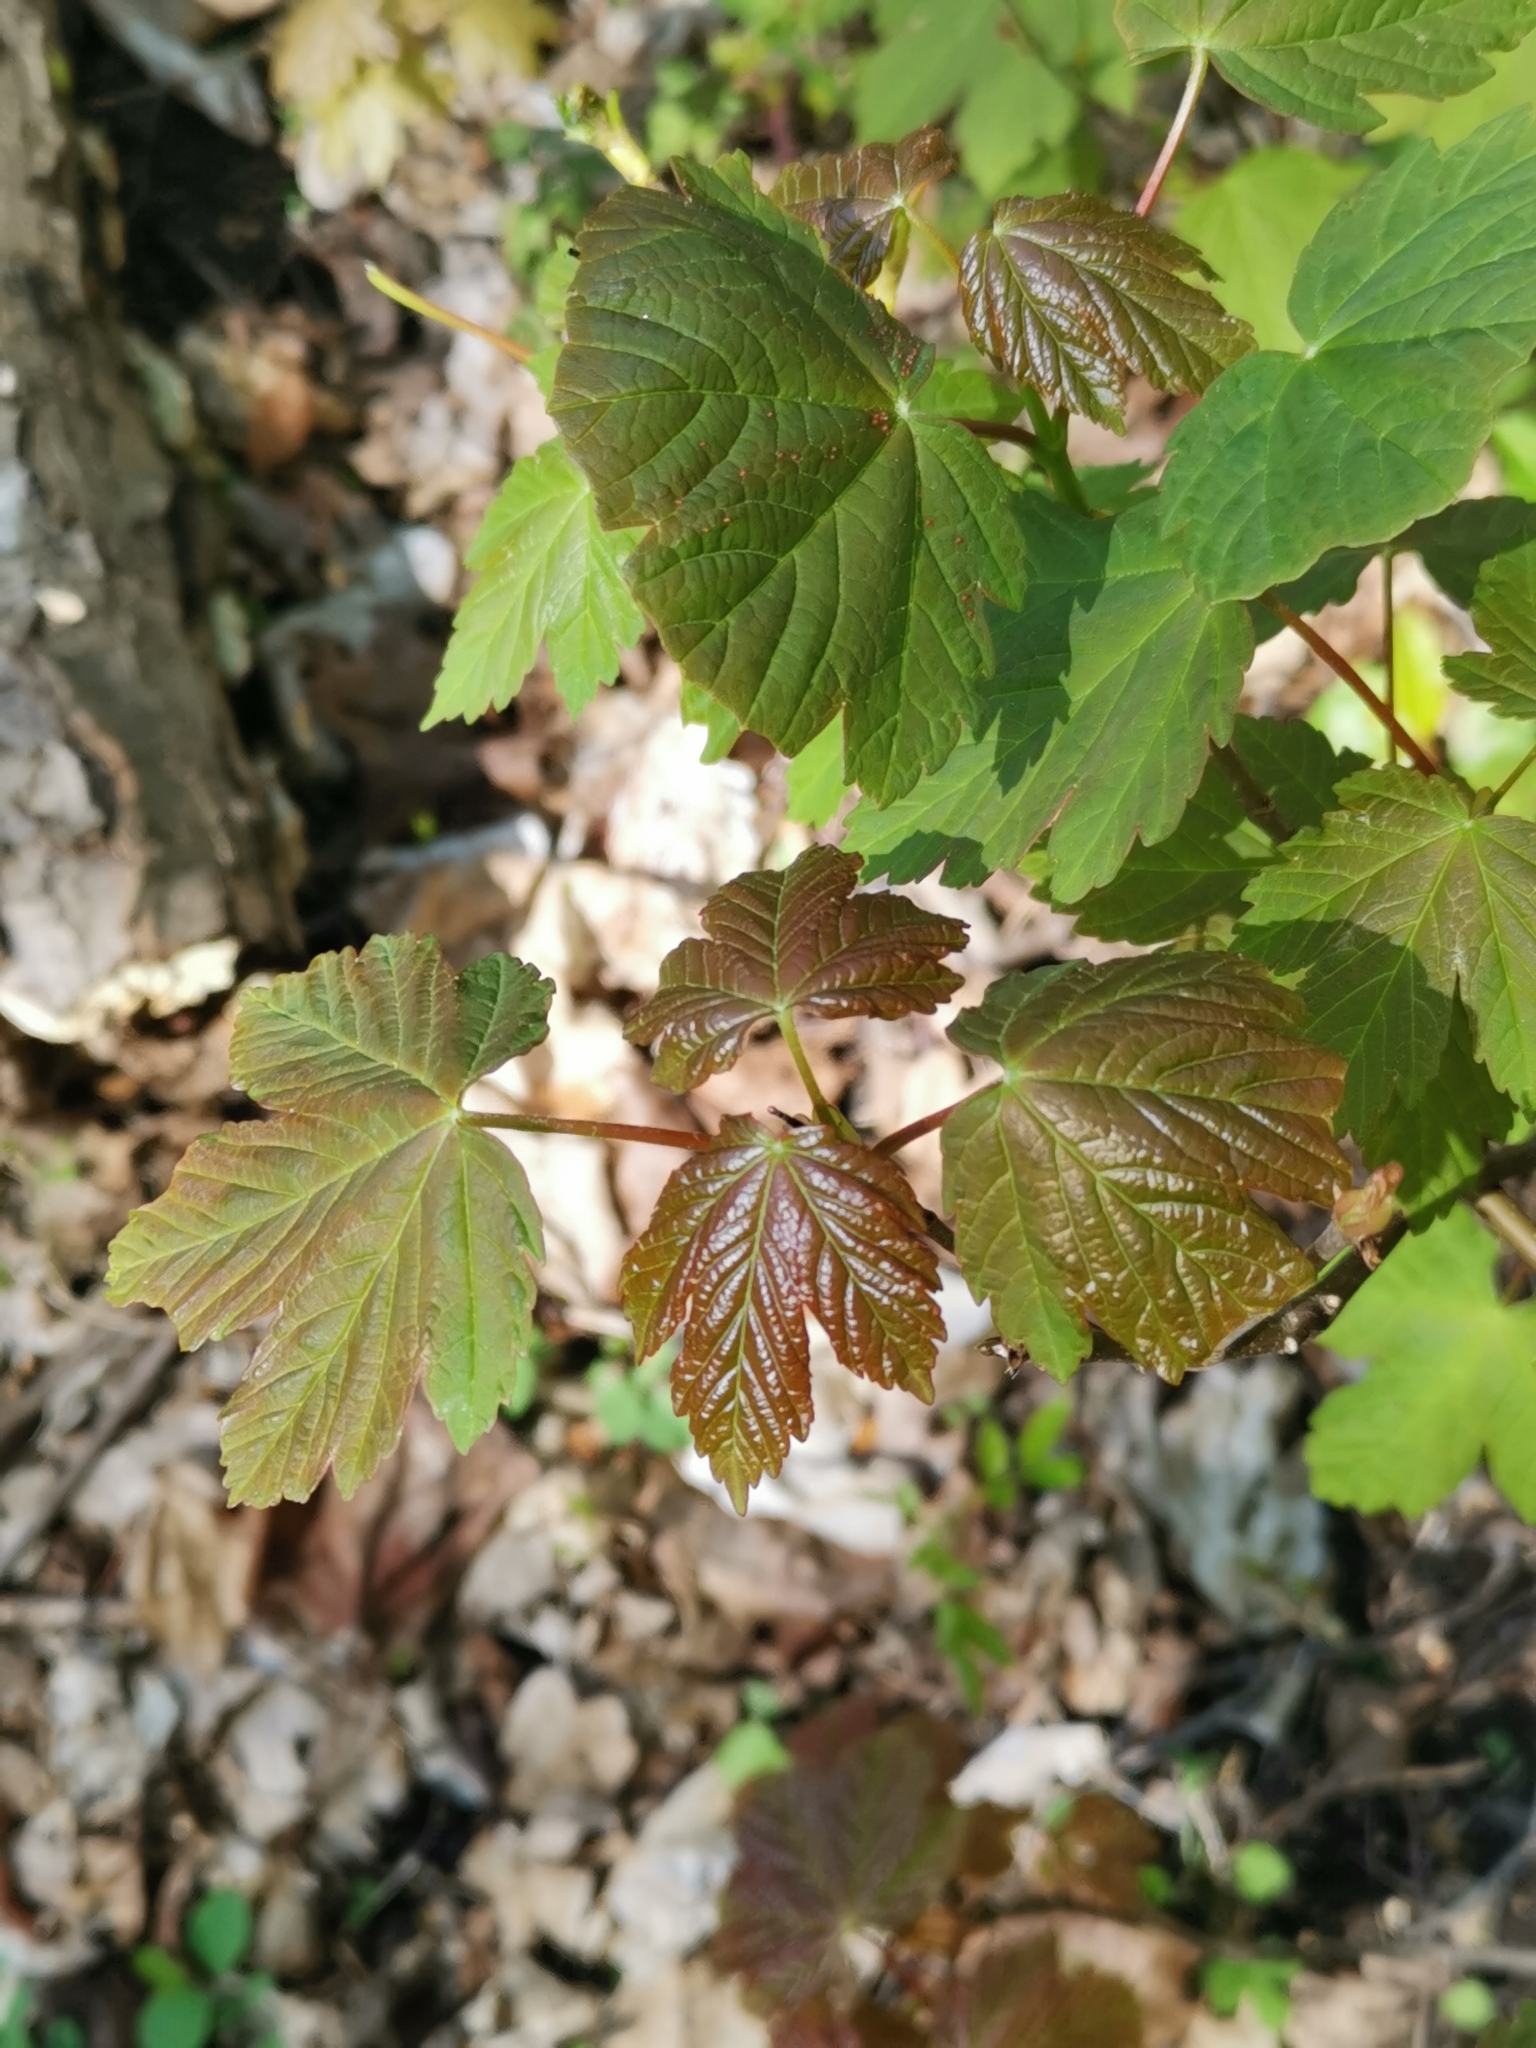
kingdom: Plantae
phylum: Tracheophyta
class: Magnoliopsida
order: Sapindales
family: Sapindaceae
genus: Acer
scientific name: Acer pseudoplatanus
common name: Sycamore
